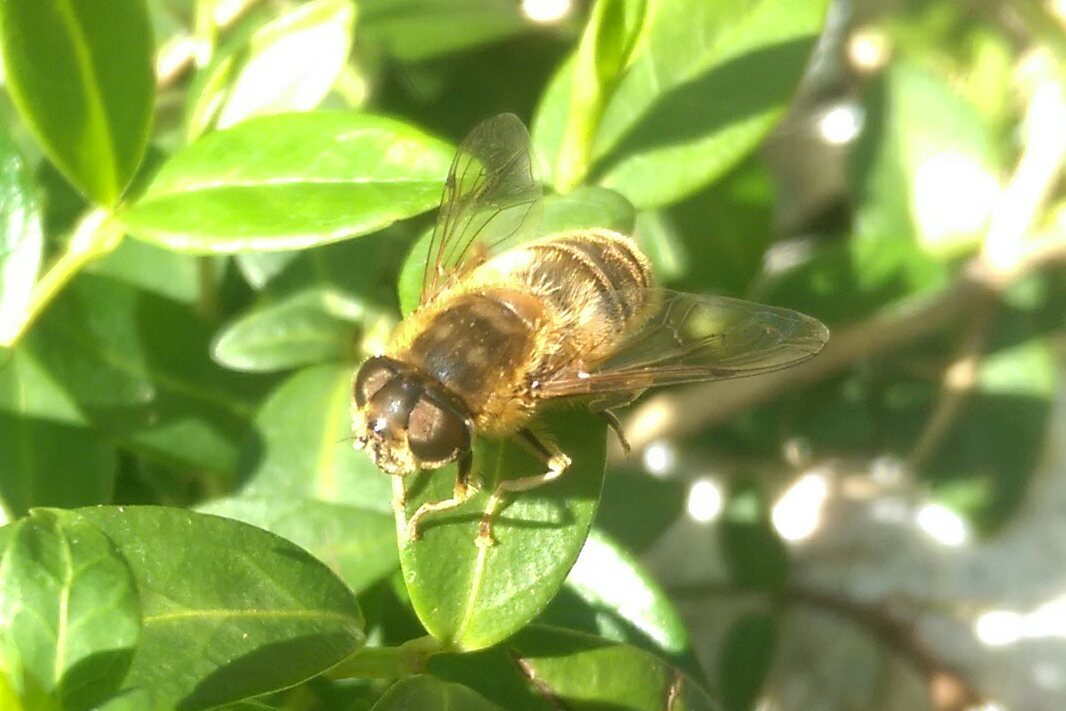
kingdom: Animalia
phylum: Arthropoda
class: Insecta
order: Diptera
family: Syrphidae
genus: Eristalis
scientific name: Eristalis pertinax
